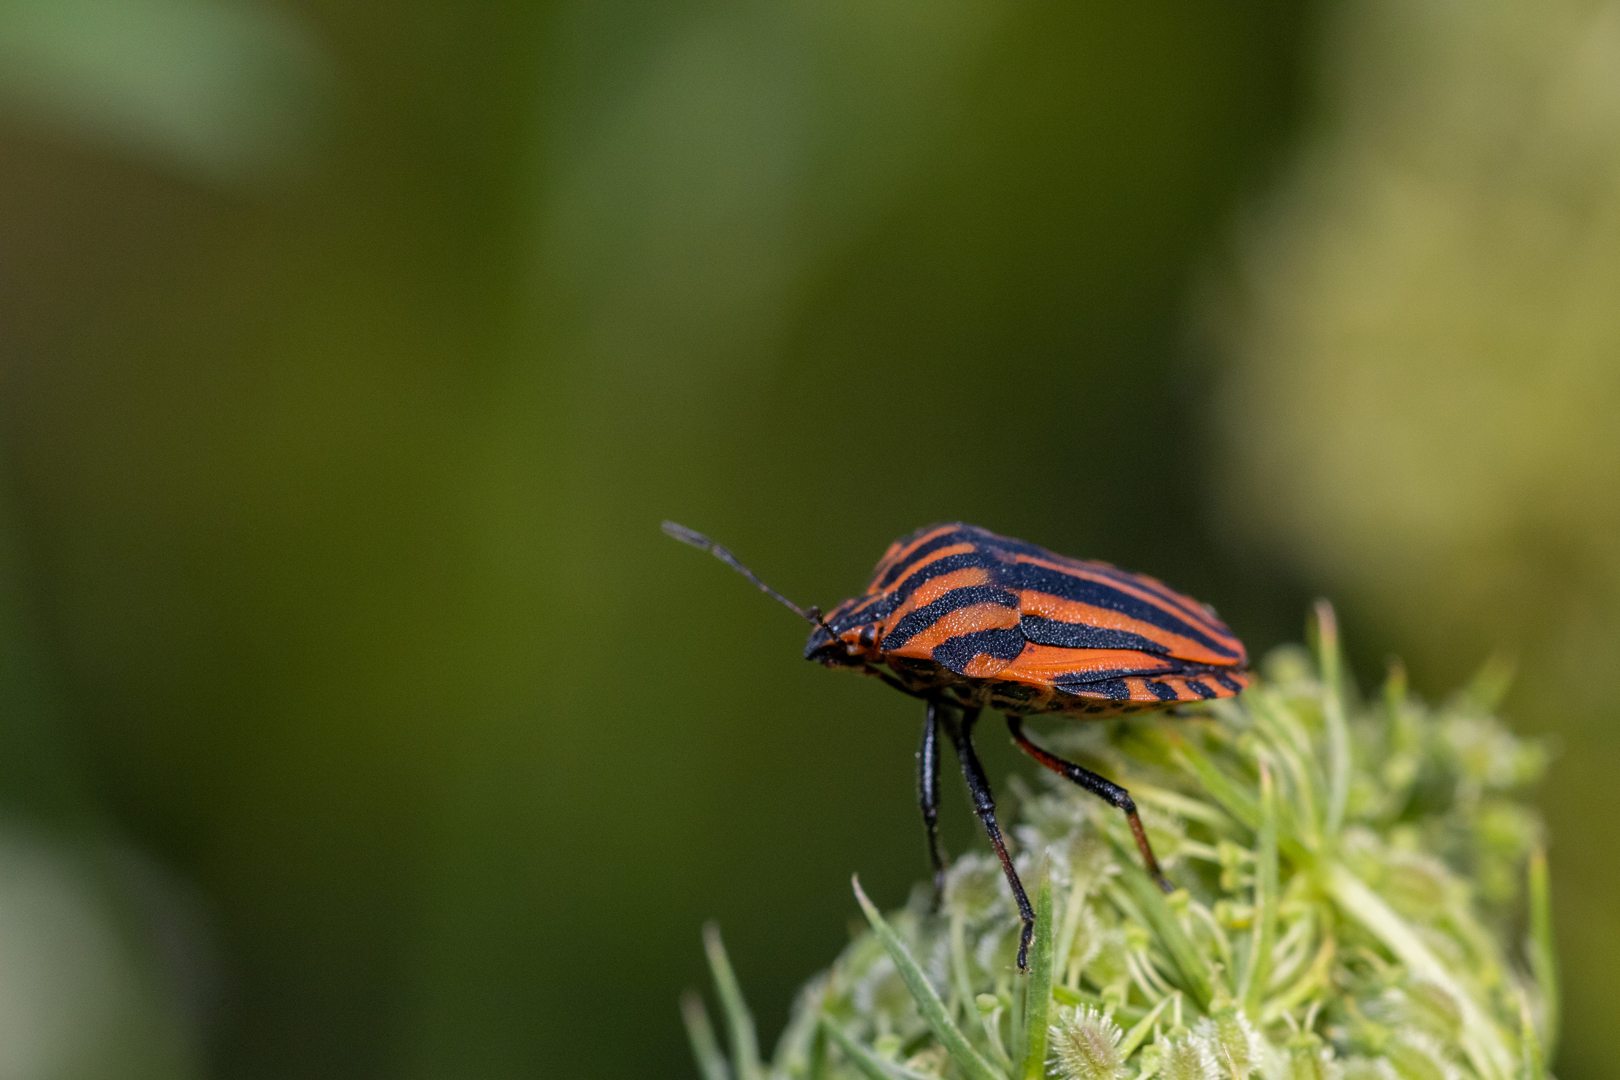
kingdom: Animalia
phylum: Arthropoda
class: Insecta
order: Hemiptera
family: Pentatomidae
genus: Graphosoma
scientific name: Graphosoma italicum
